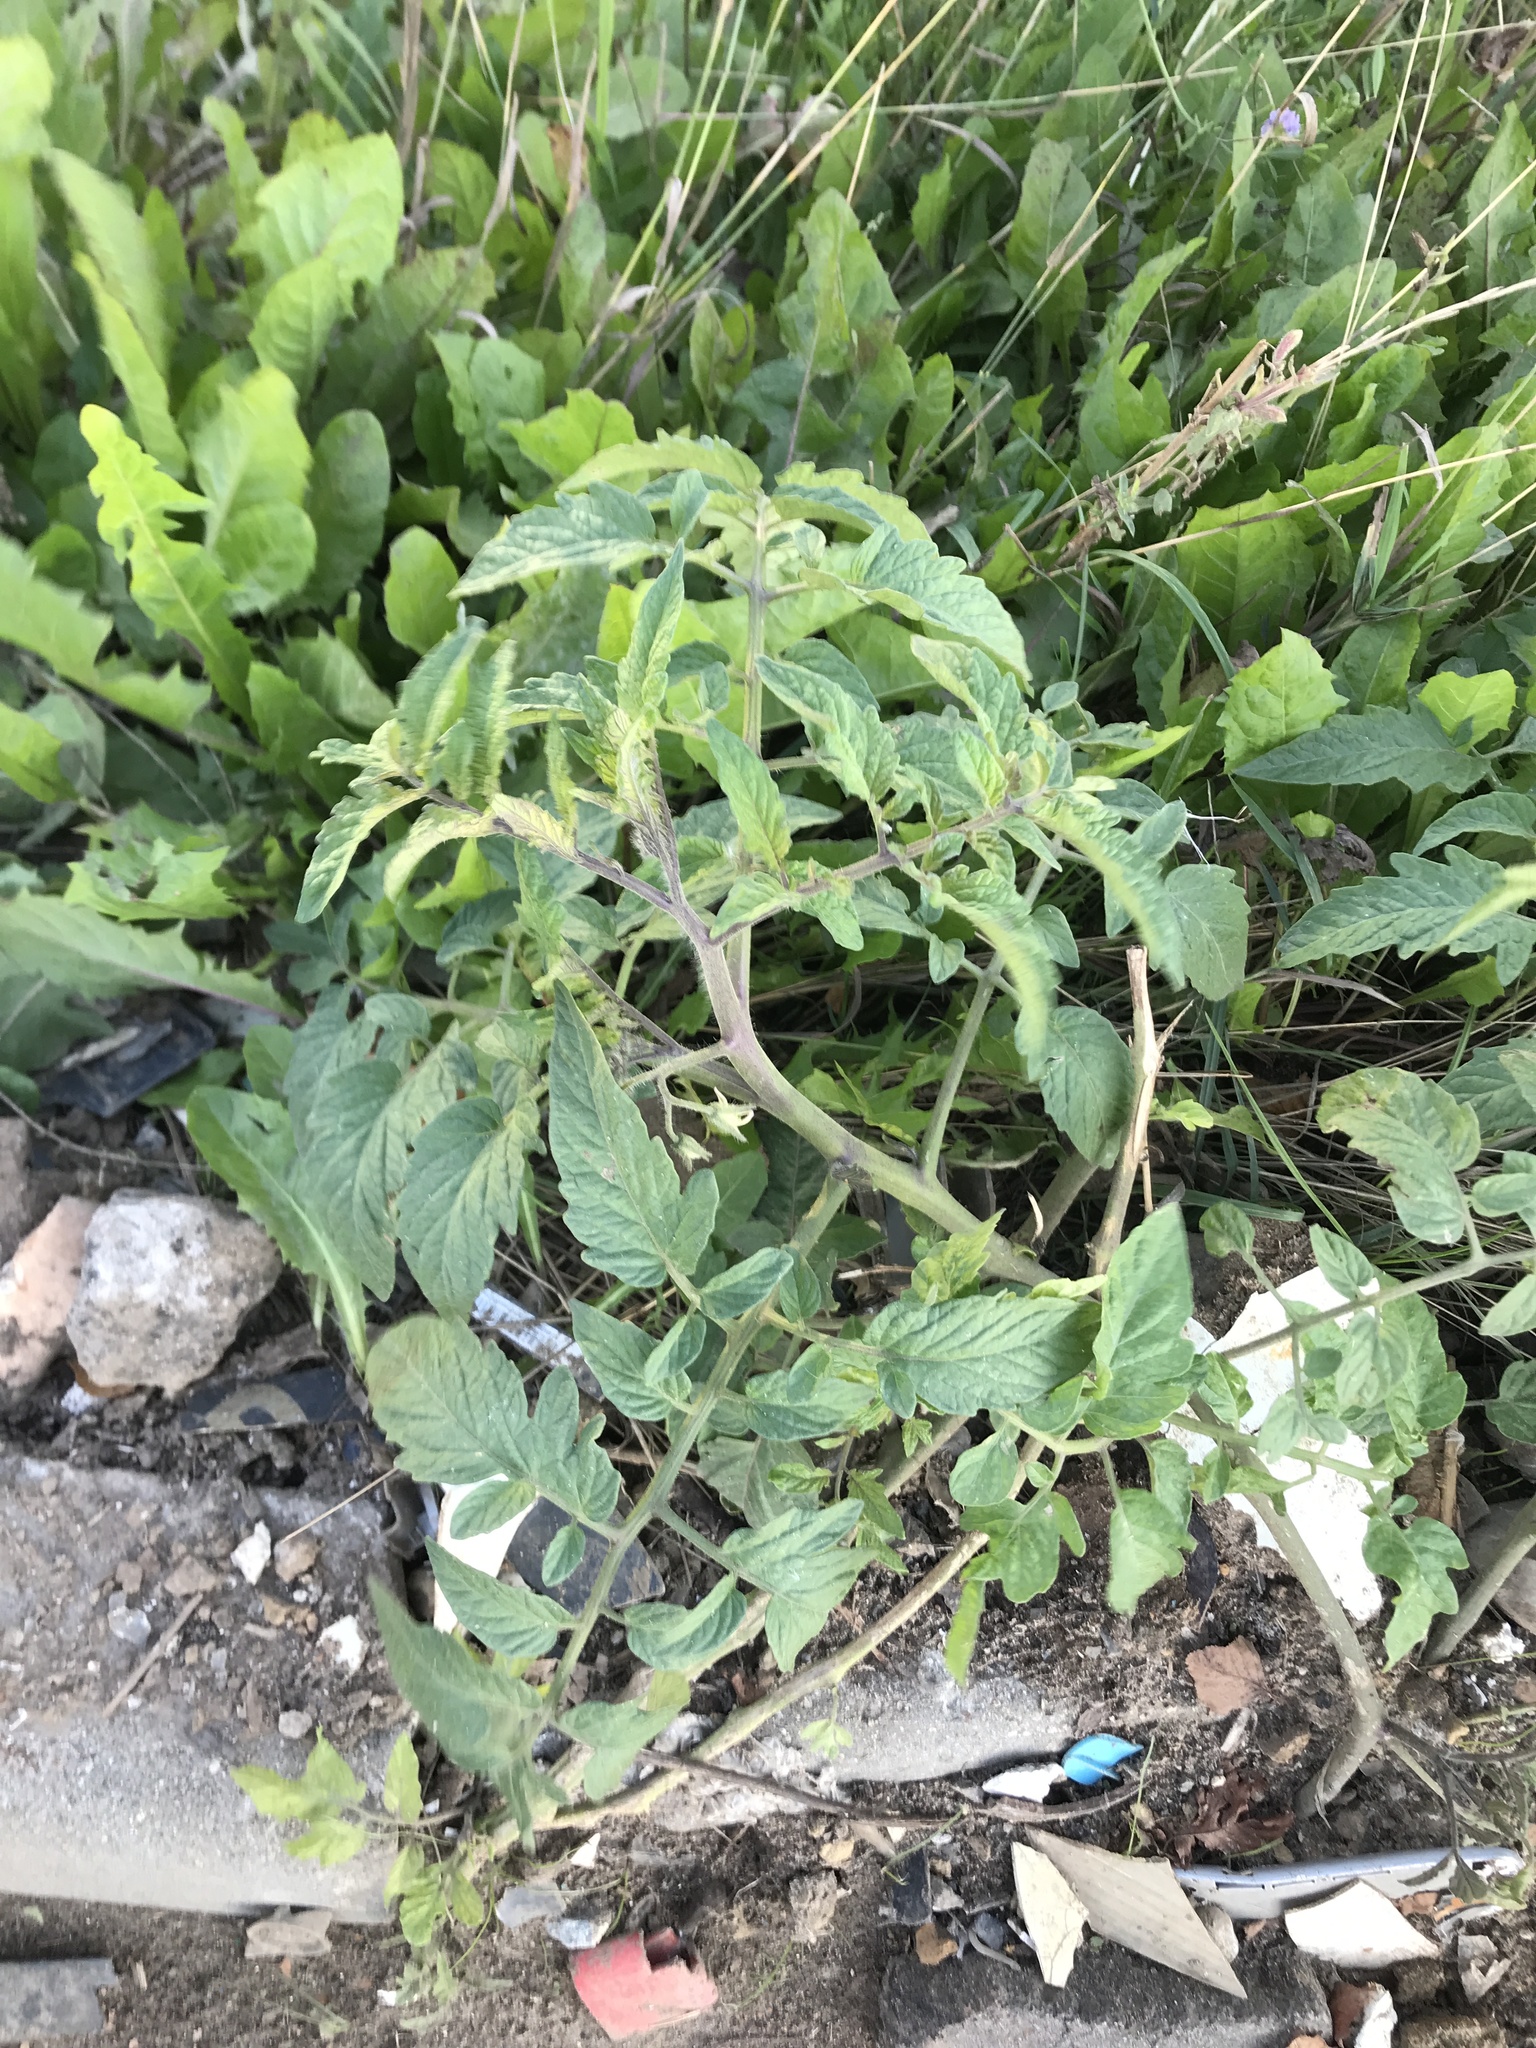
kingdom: Plantae
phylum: Tracheophyta
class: Magnoliopsida
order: Solanales
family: Solanaceae
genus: Solanum
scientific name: Solanum lycopersicum
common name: Garden tomato
